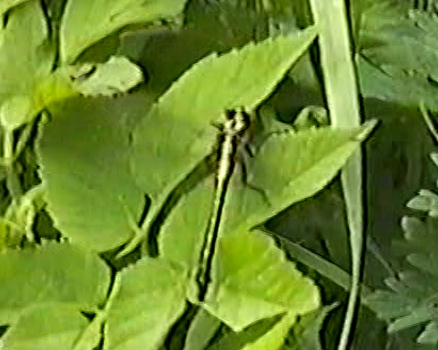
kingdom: Animalia
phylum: Arthropoda
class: Insecta
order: Odonata
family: Gomphidae
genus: Gomphus
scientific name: Gomphus vulgatissimus
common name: Club-tailed dragonfly
